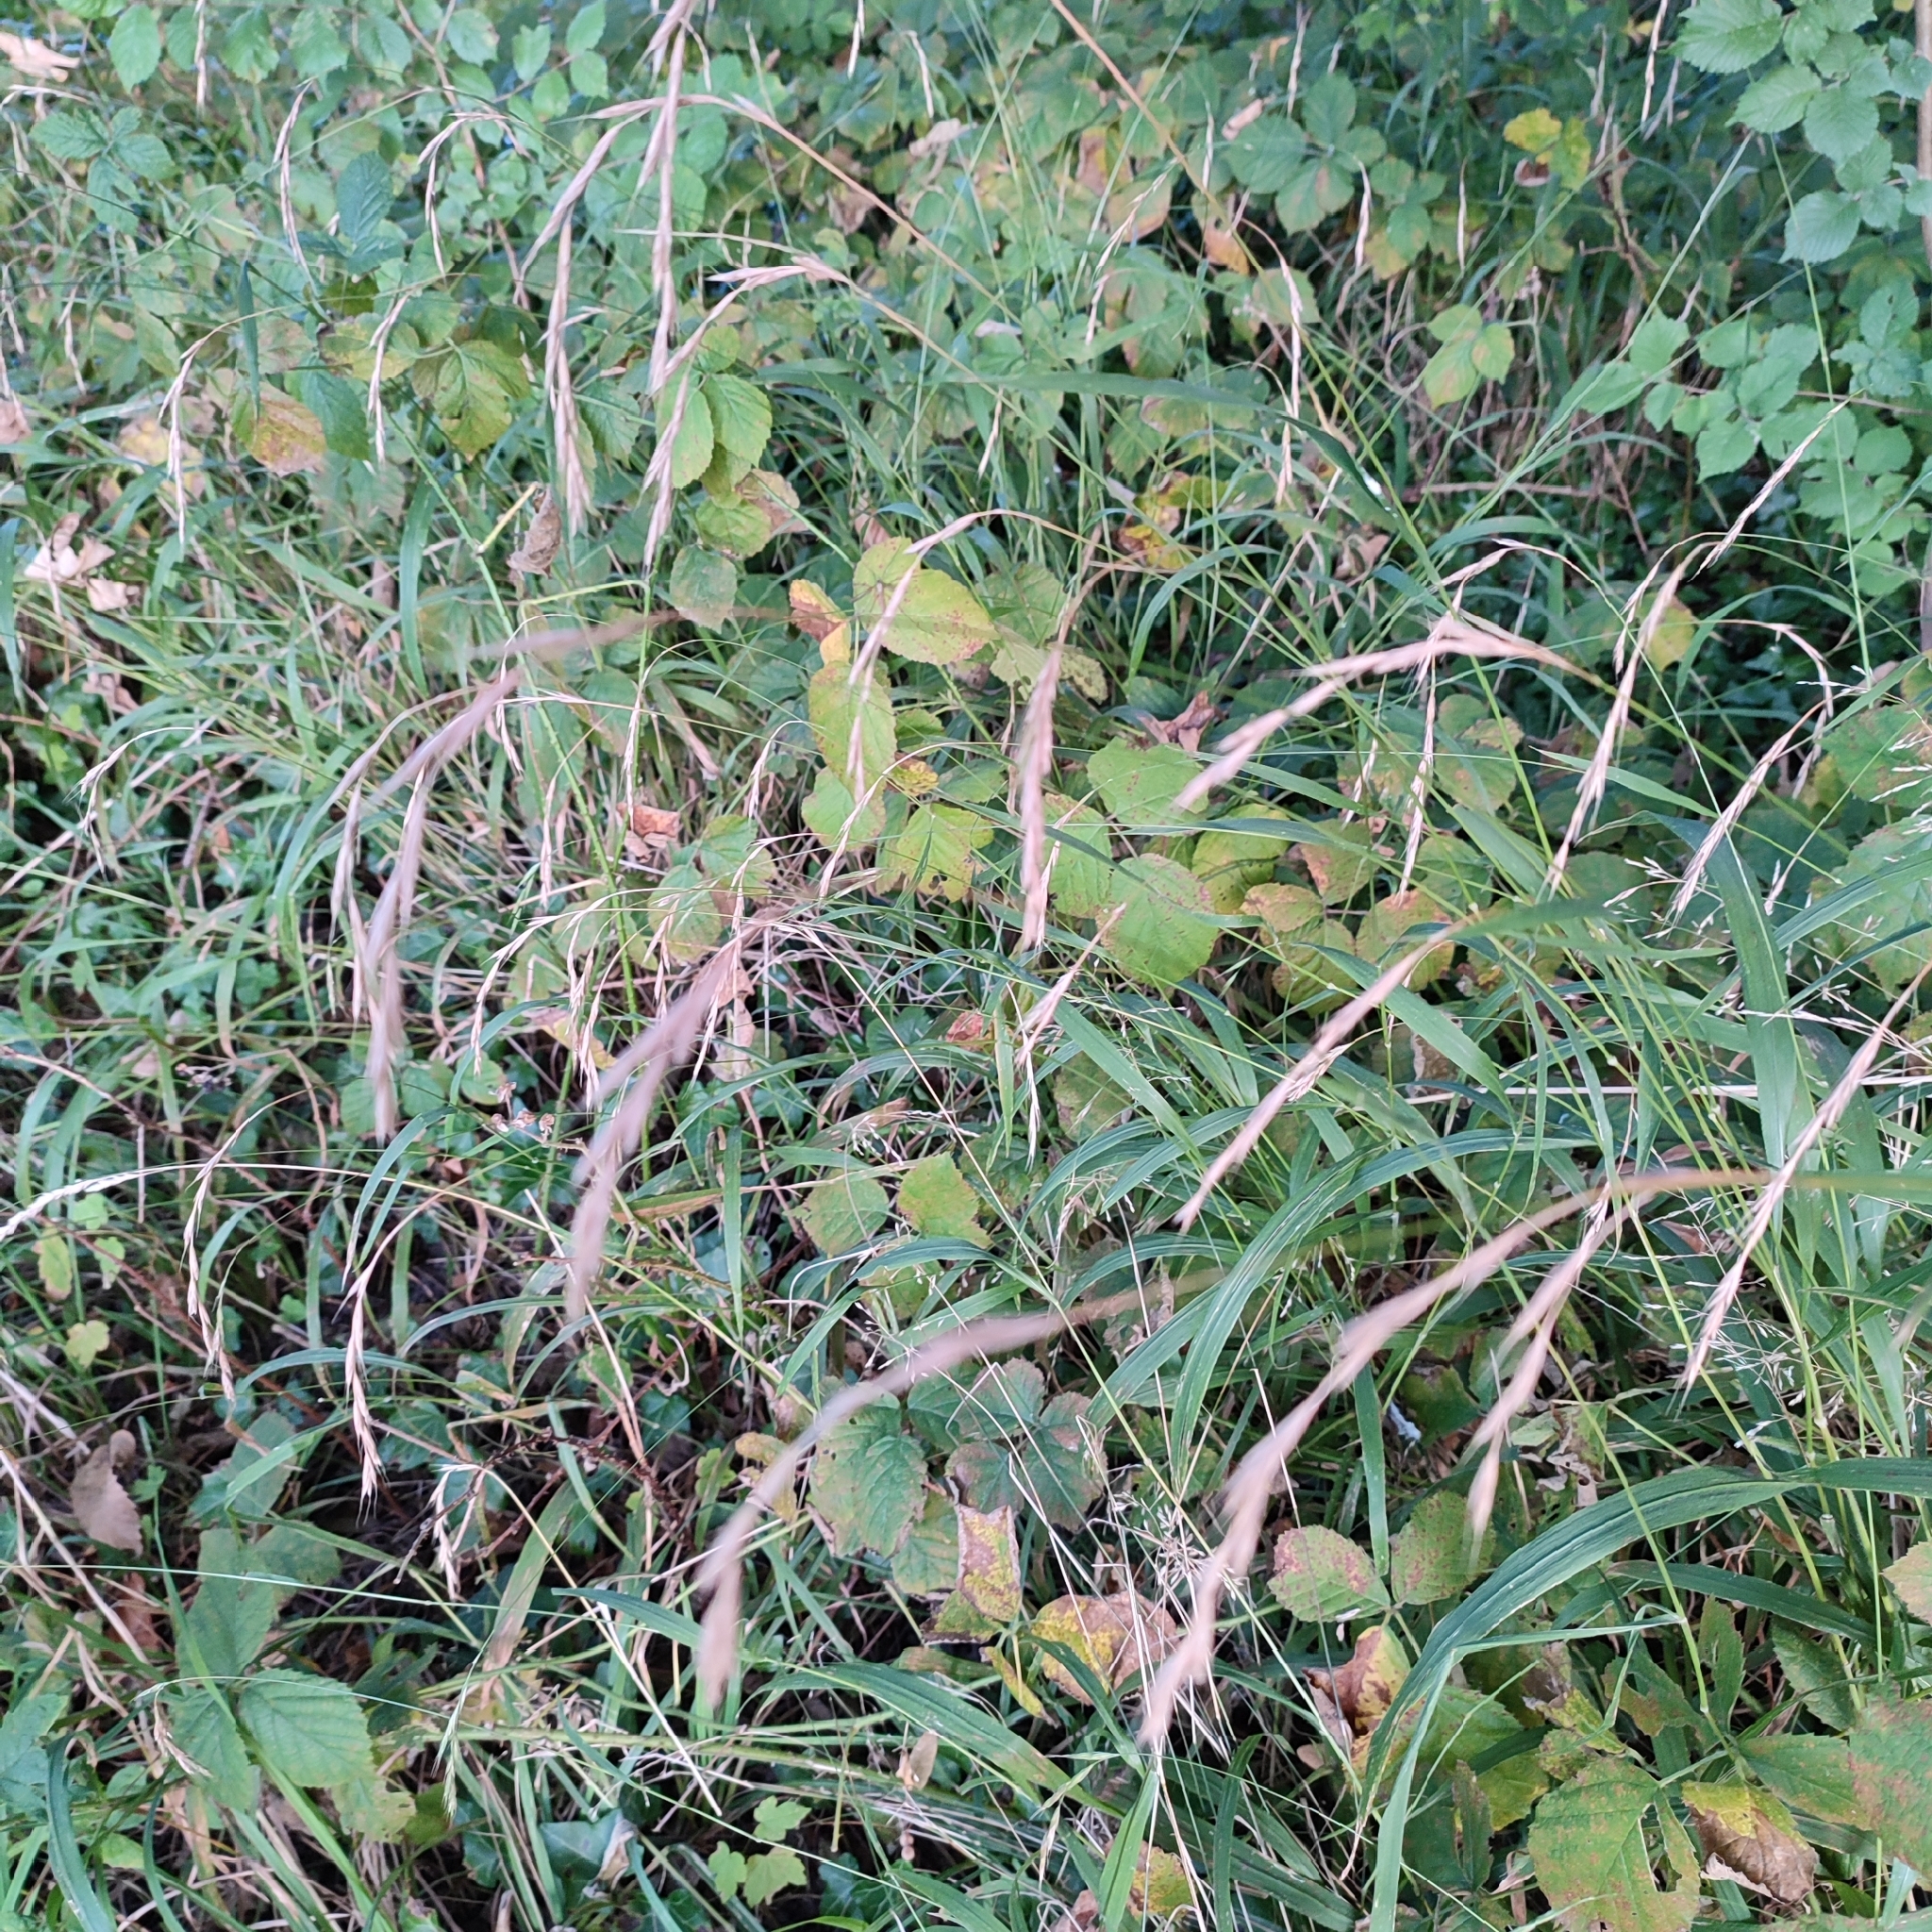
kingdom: Plantae
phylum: Tracheophyta
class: Liliopsida
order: Poales
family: Poaceae
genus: Brachypodium
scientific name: Brachypodium sylvaticum
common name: False-brome
